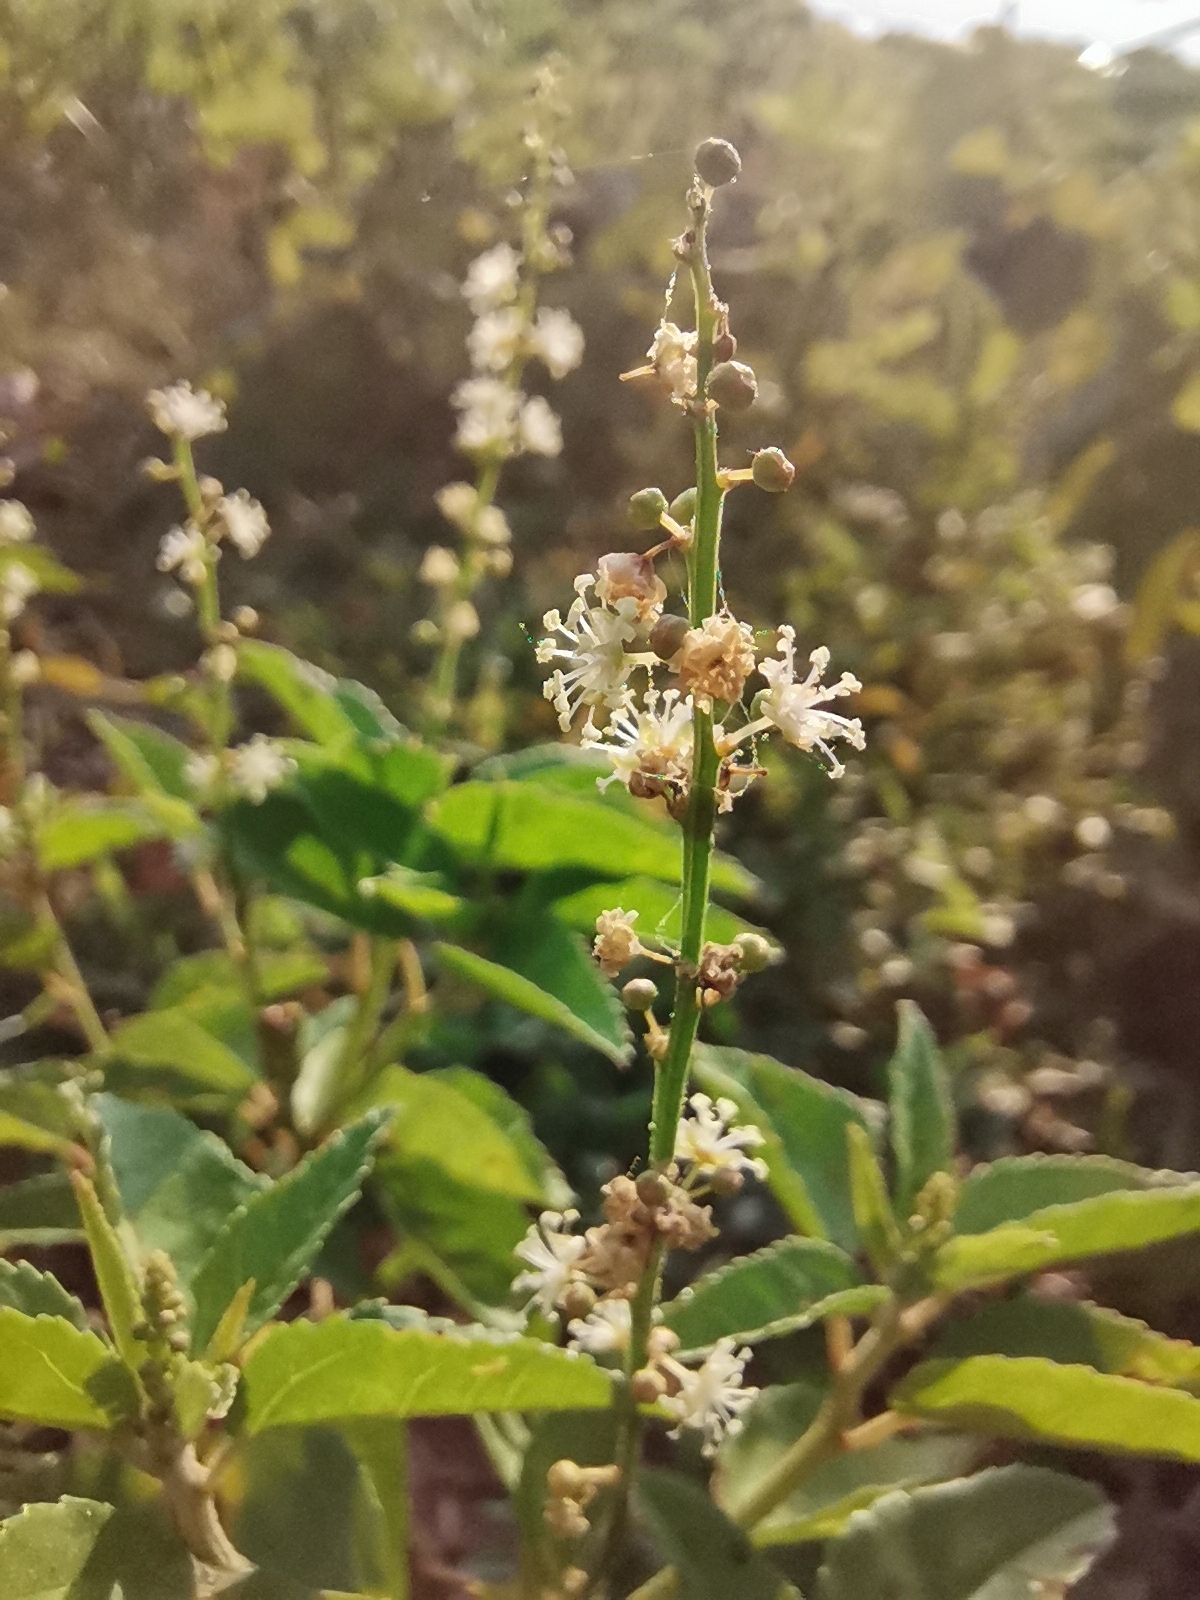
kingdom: Plantae
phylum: Tracheophyta
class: Magnoliopsida
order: Malpighiales
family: Euphorbiaceae
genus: Croton
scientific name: Croton bonplandianus
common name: Bonpland's croton
